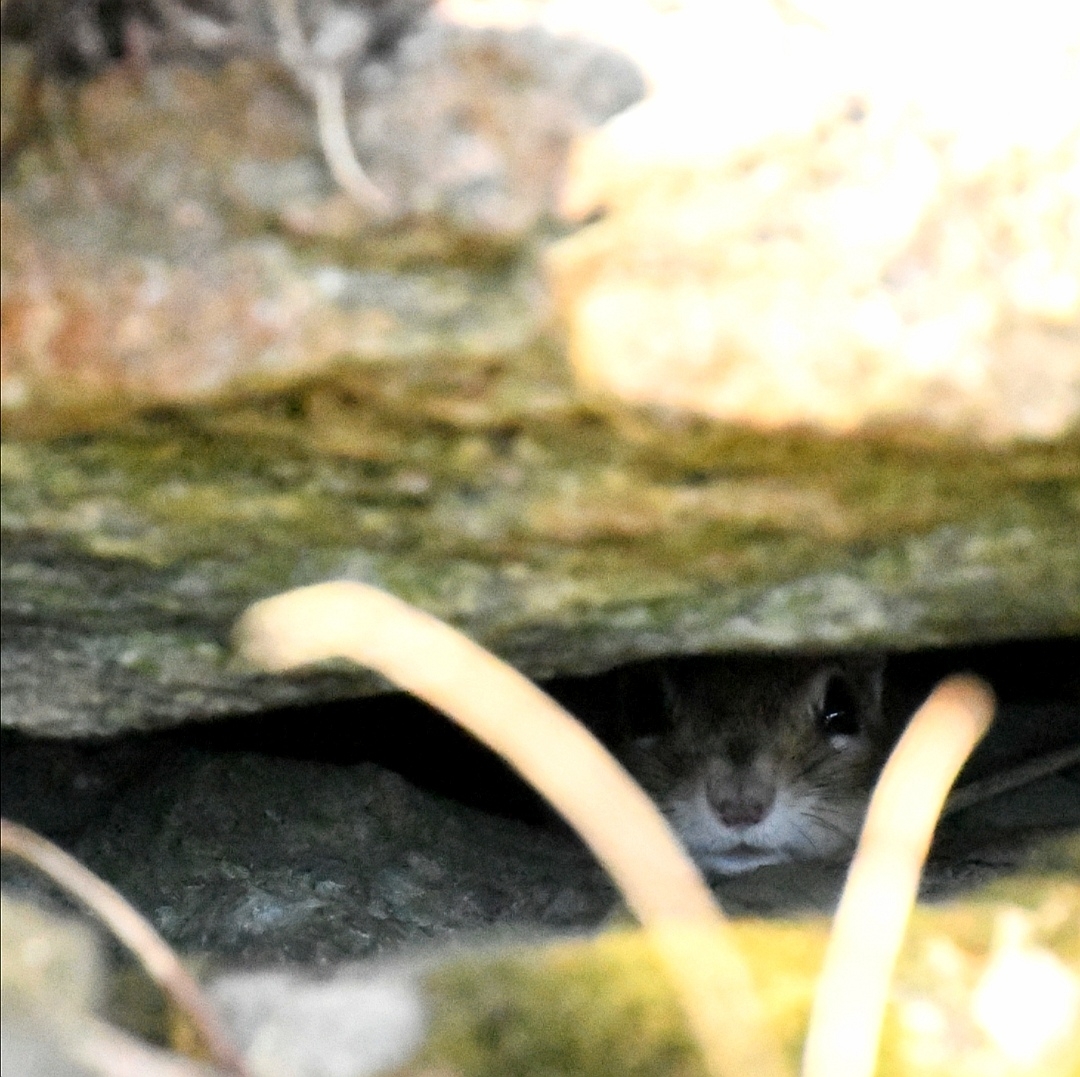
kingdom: Animalia
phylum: Chordata
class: Mammalia
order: Rodentia
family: Sciuridae
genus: Tamias
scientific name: Tamias striatus
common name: Eastern chipmunk
